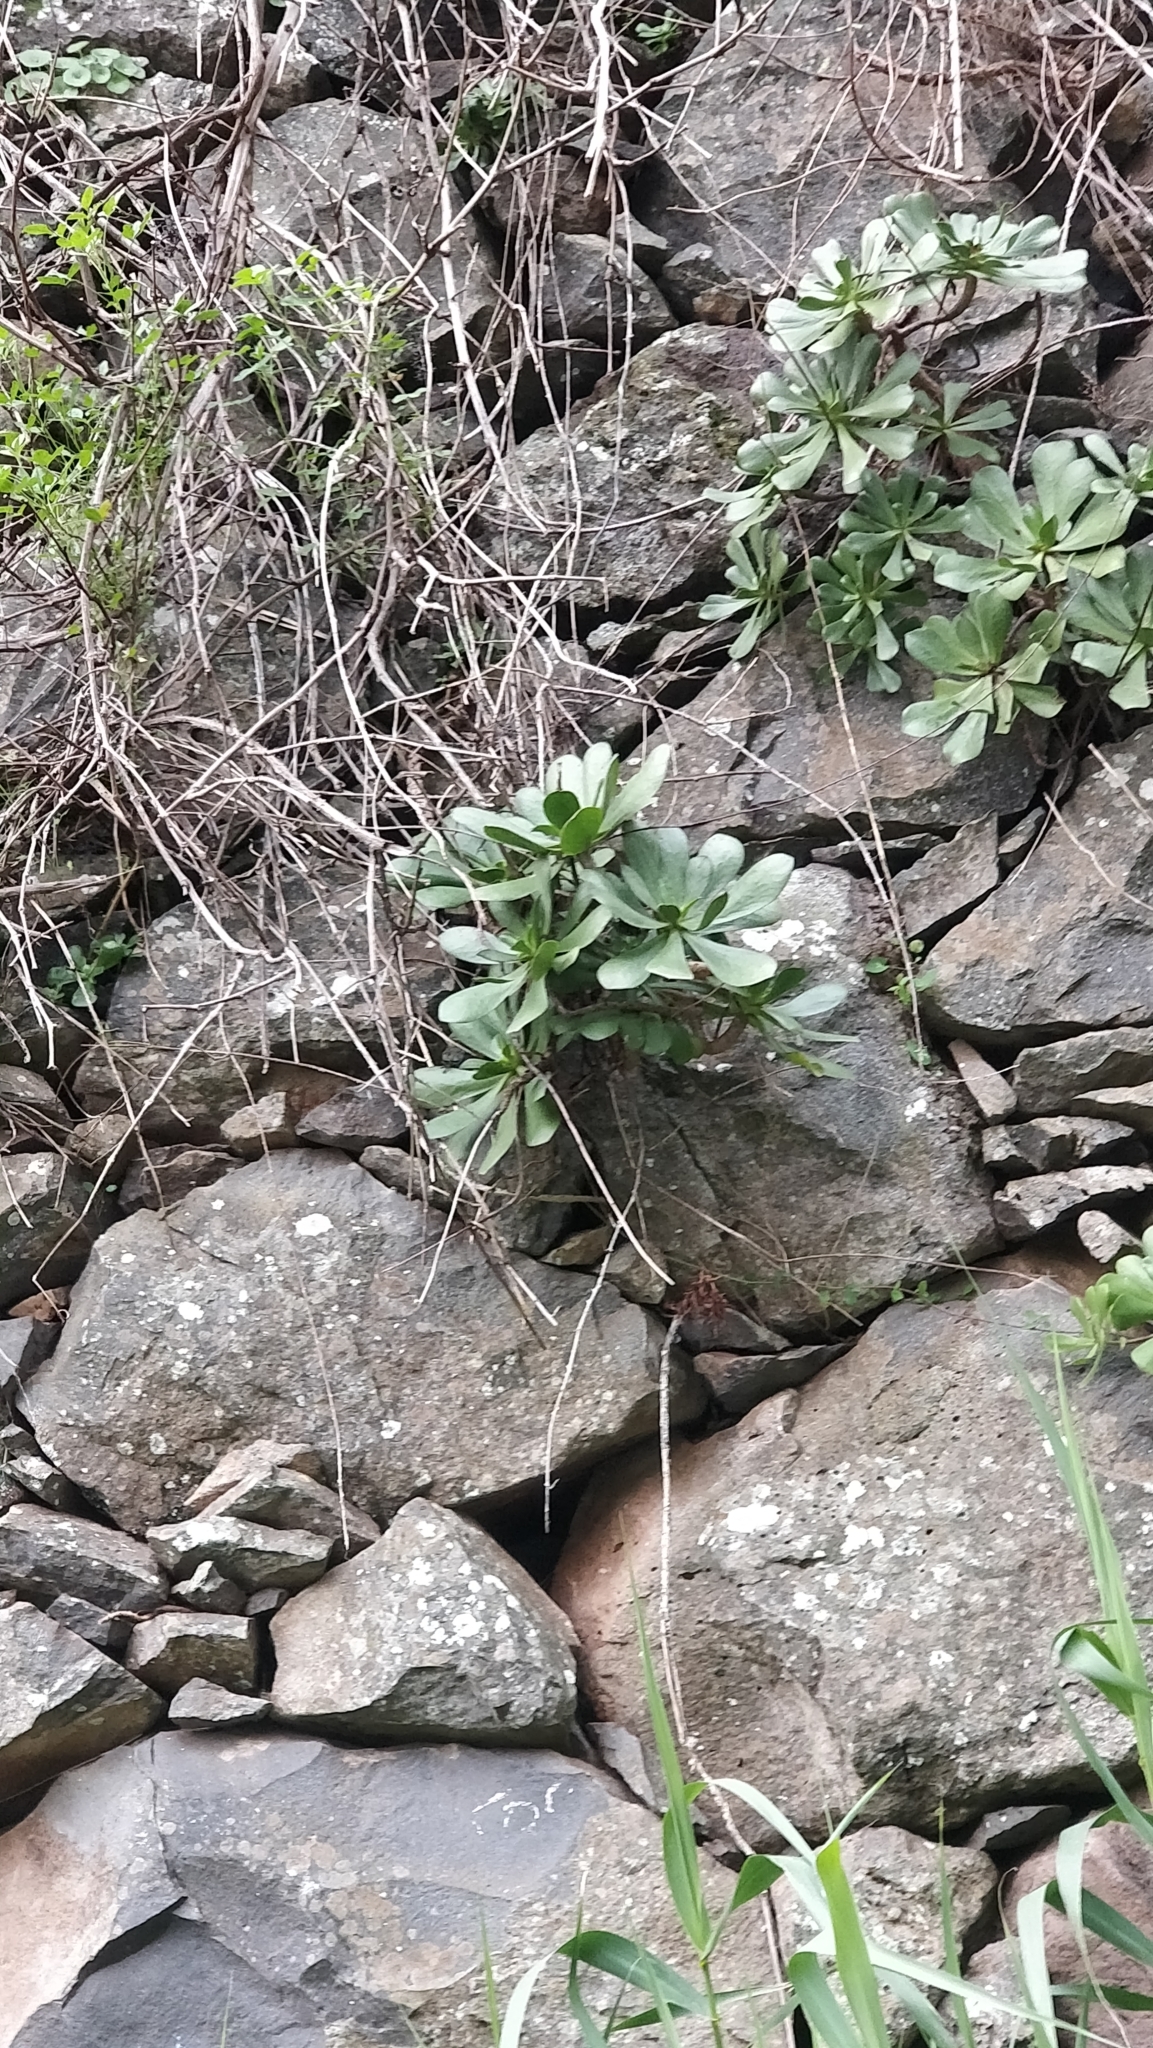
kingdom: Plantae
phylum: Tracheophyta
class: Magnoliopsida
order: Saxifragales
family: Crassulaceae
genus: Aeonium
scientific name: Aeonium glutinosum
